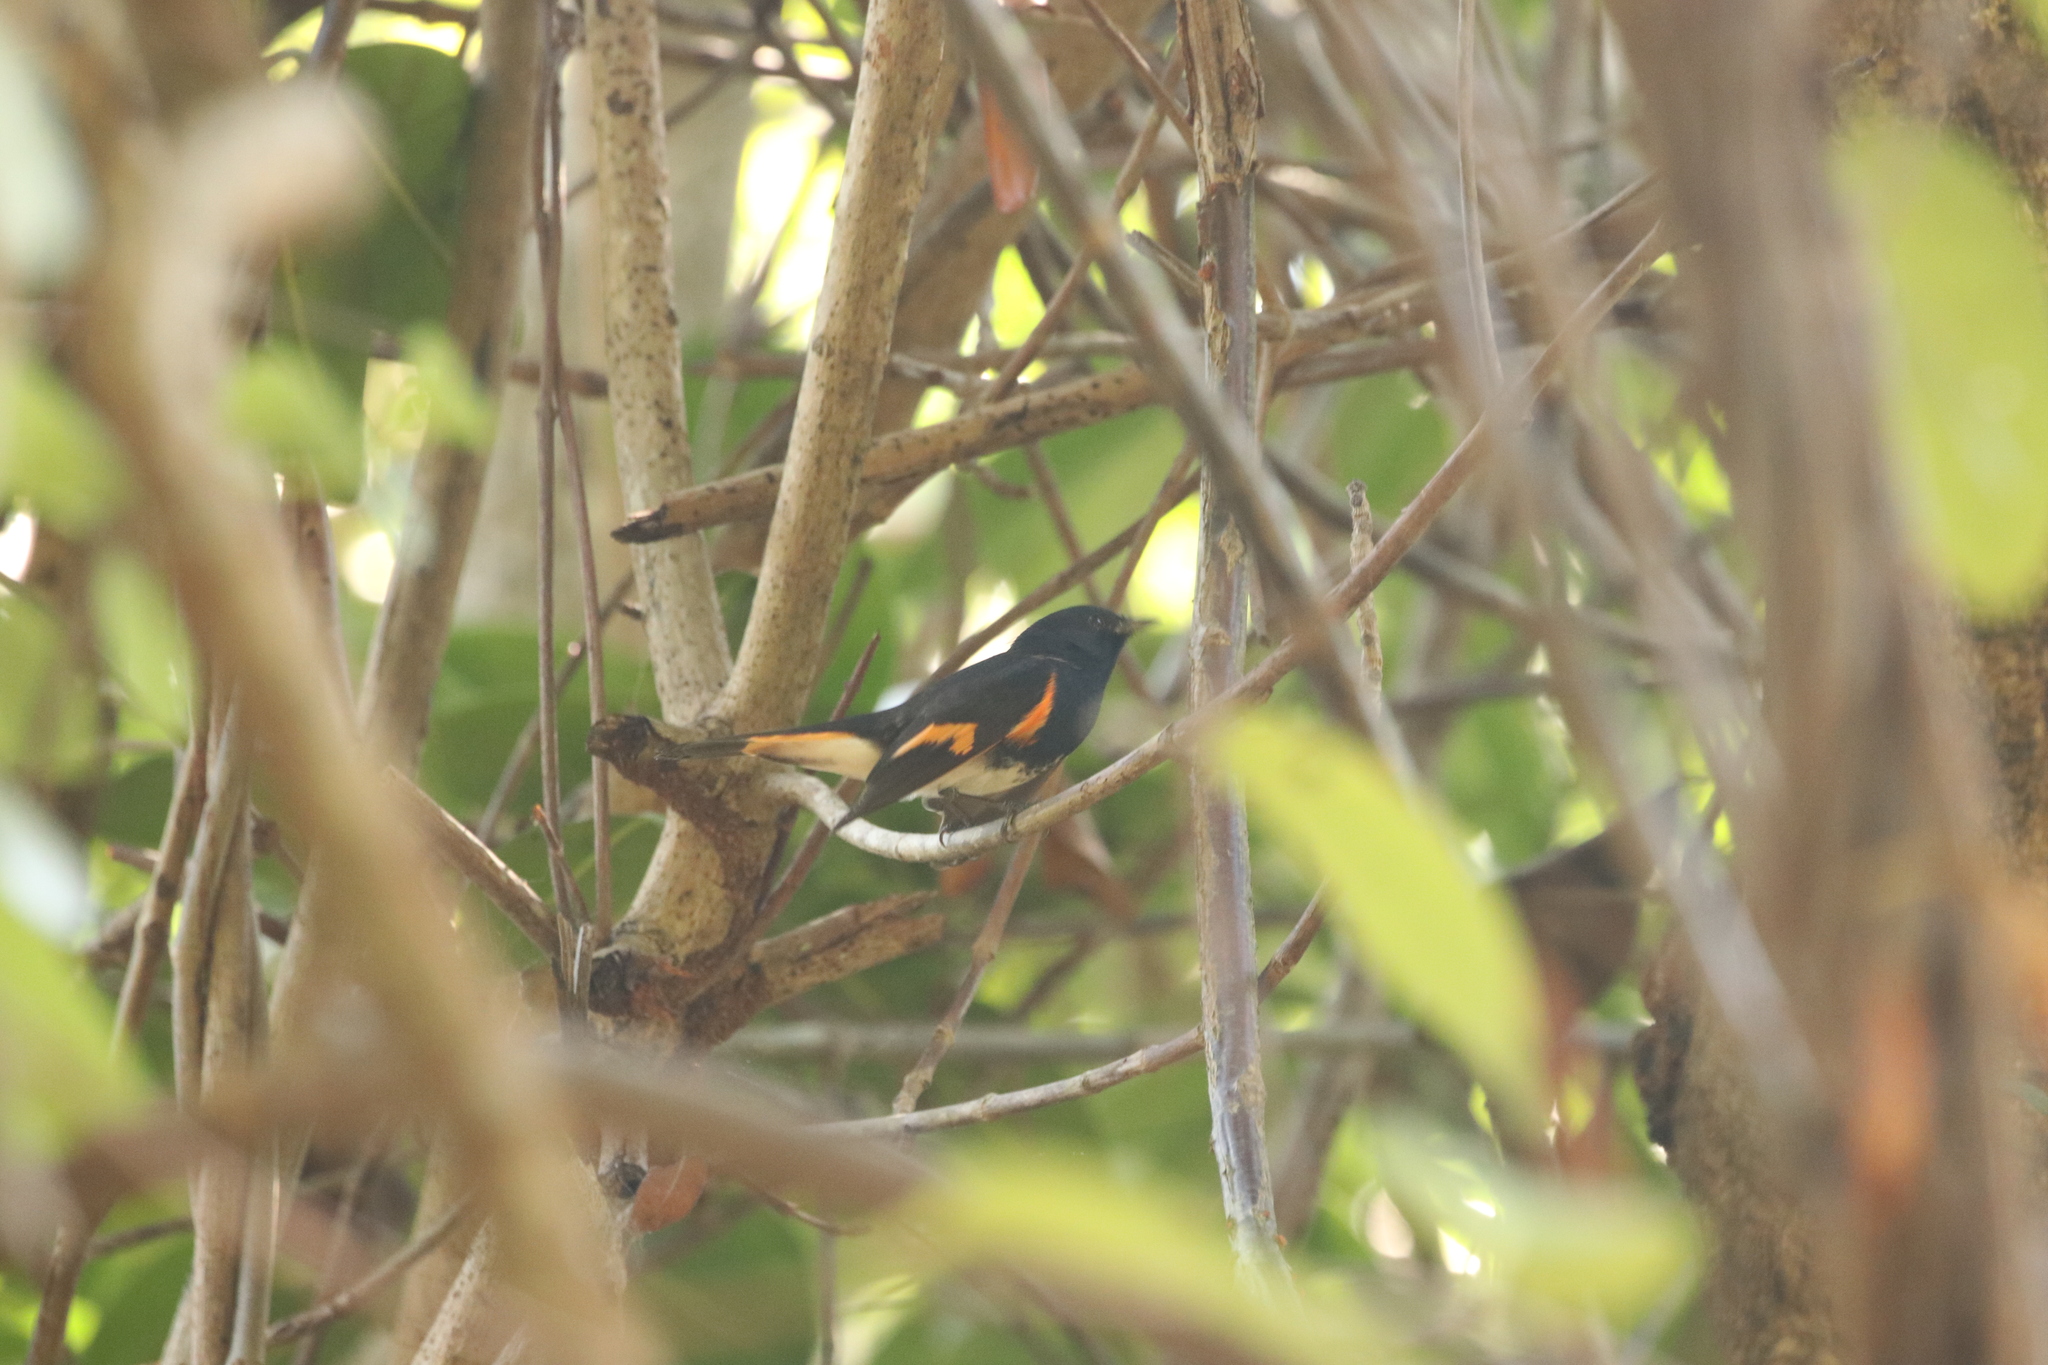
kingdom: Animalia
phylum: Chordata
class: Aves
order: Passeriformes
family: Parulidae
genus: Setophaga
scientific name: Setophaga ruticilla
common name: American redstart
